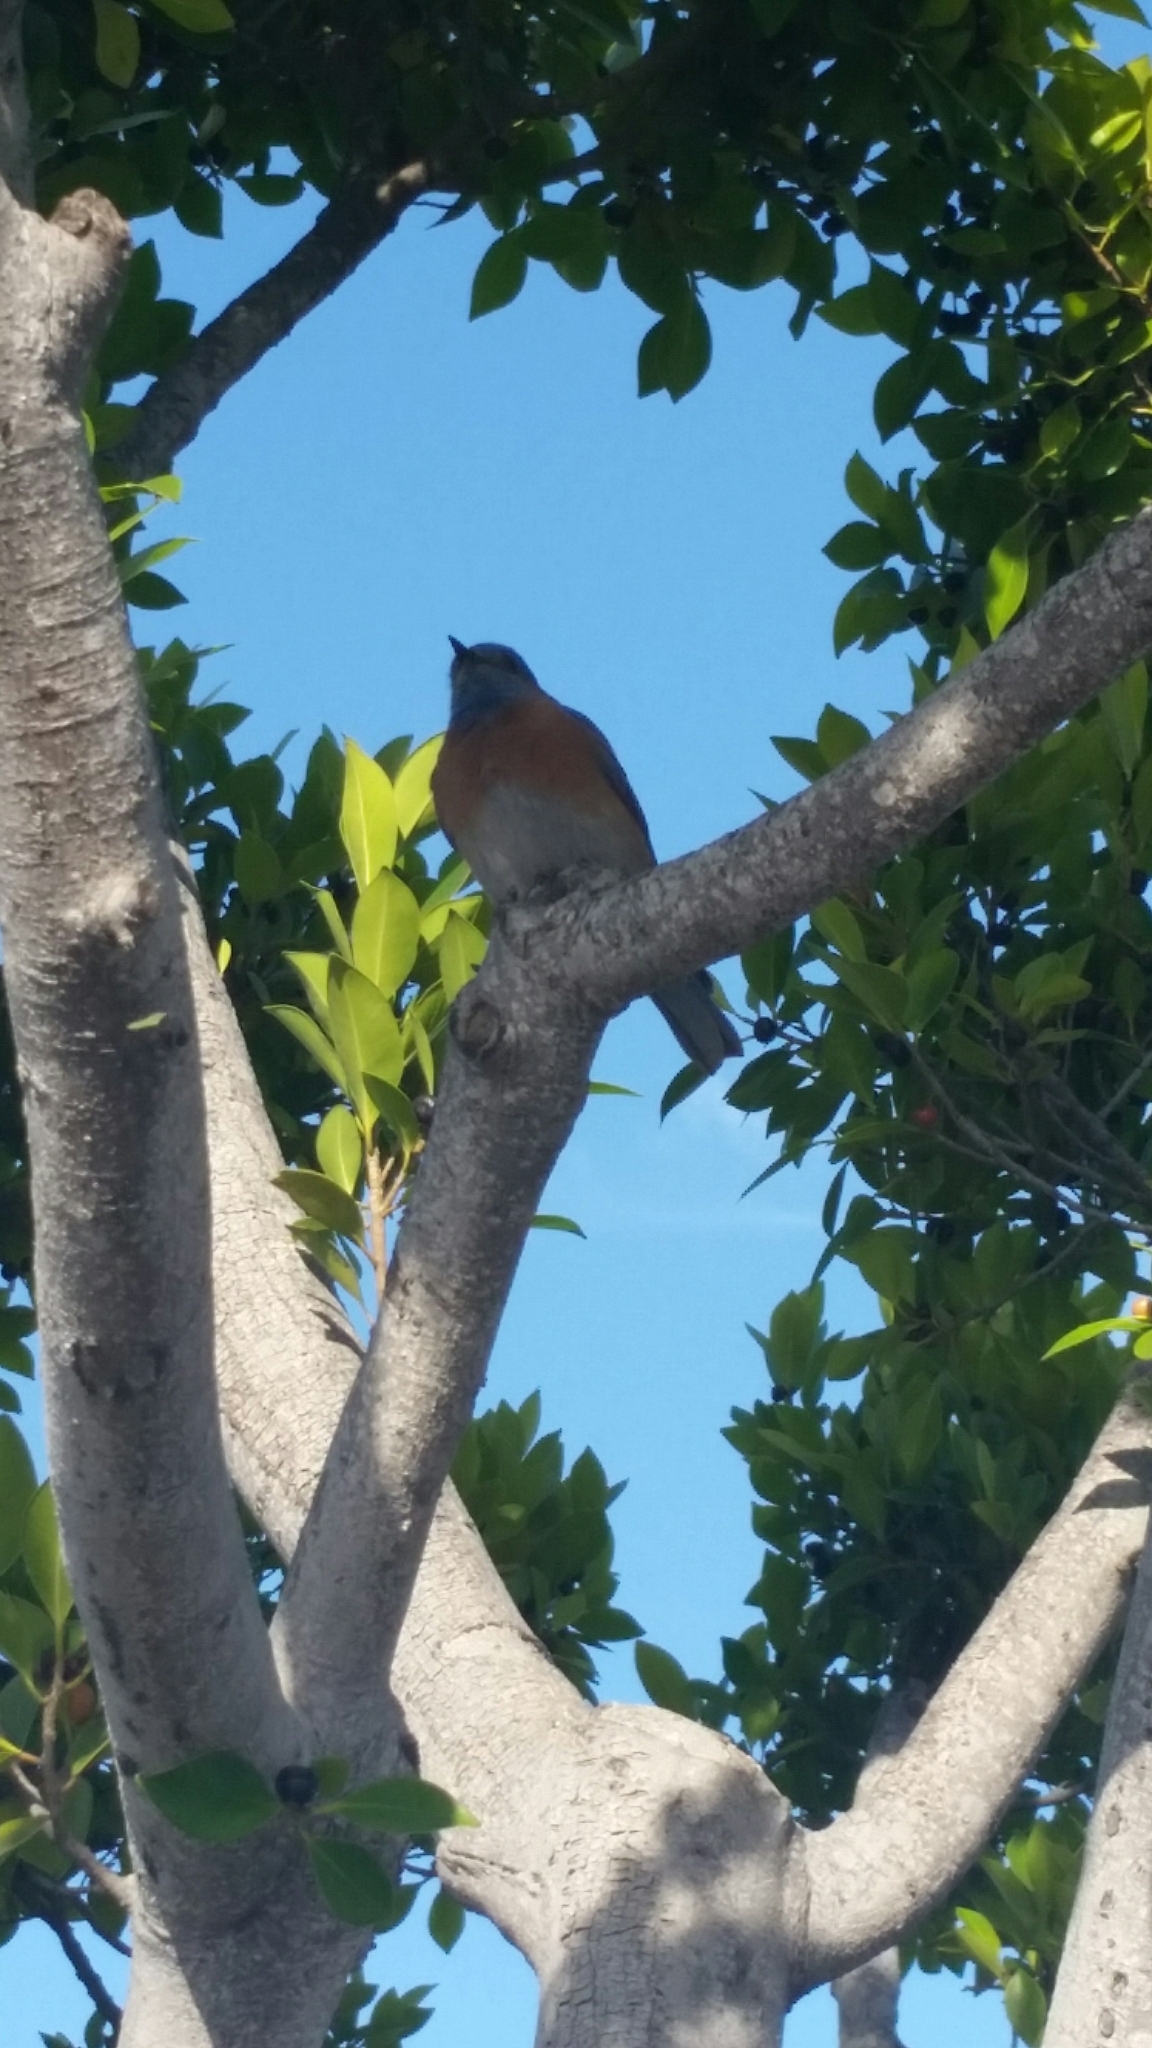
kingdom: Animalia
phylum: Chordata
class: Aves
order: Passeriformes
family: Turdidae
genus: Sialia
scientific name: Sialia mexicana
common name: Western bluebird
